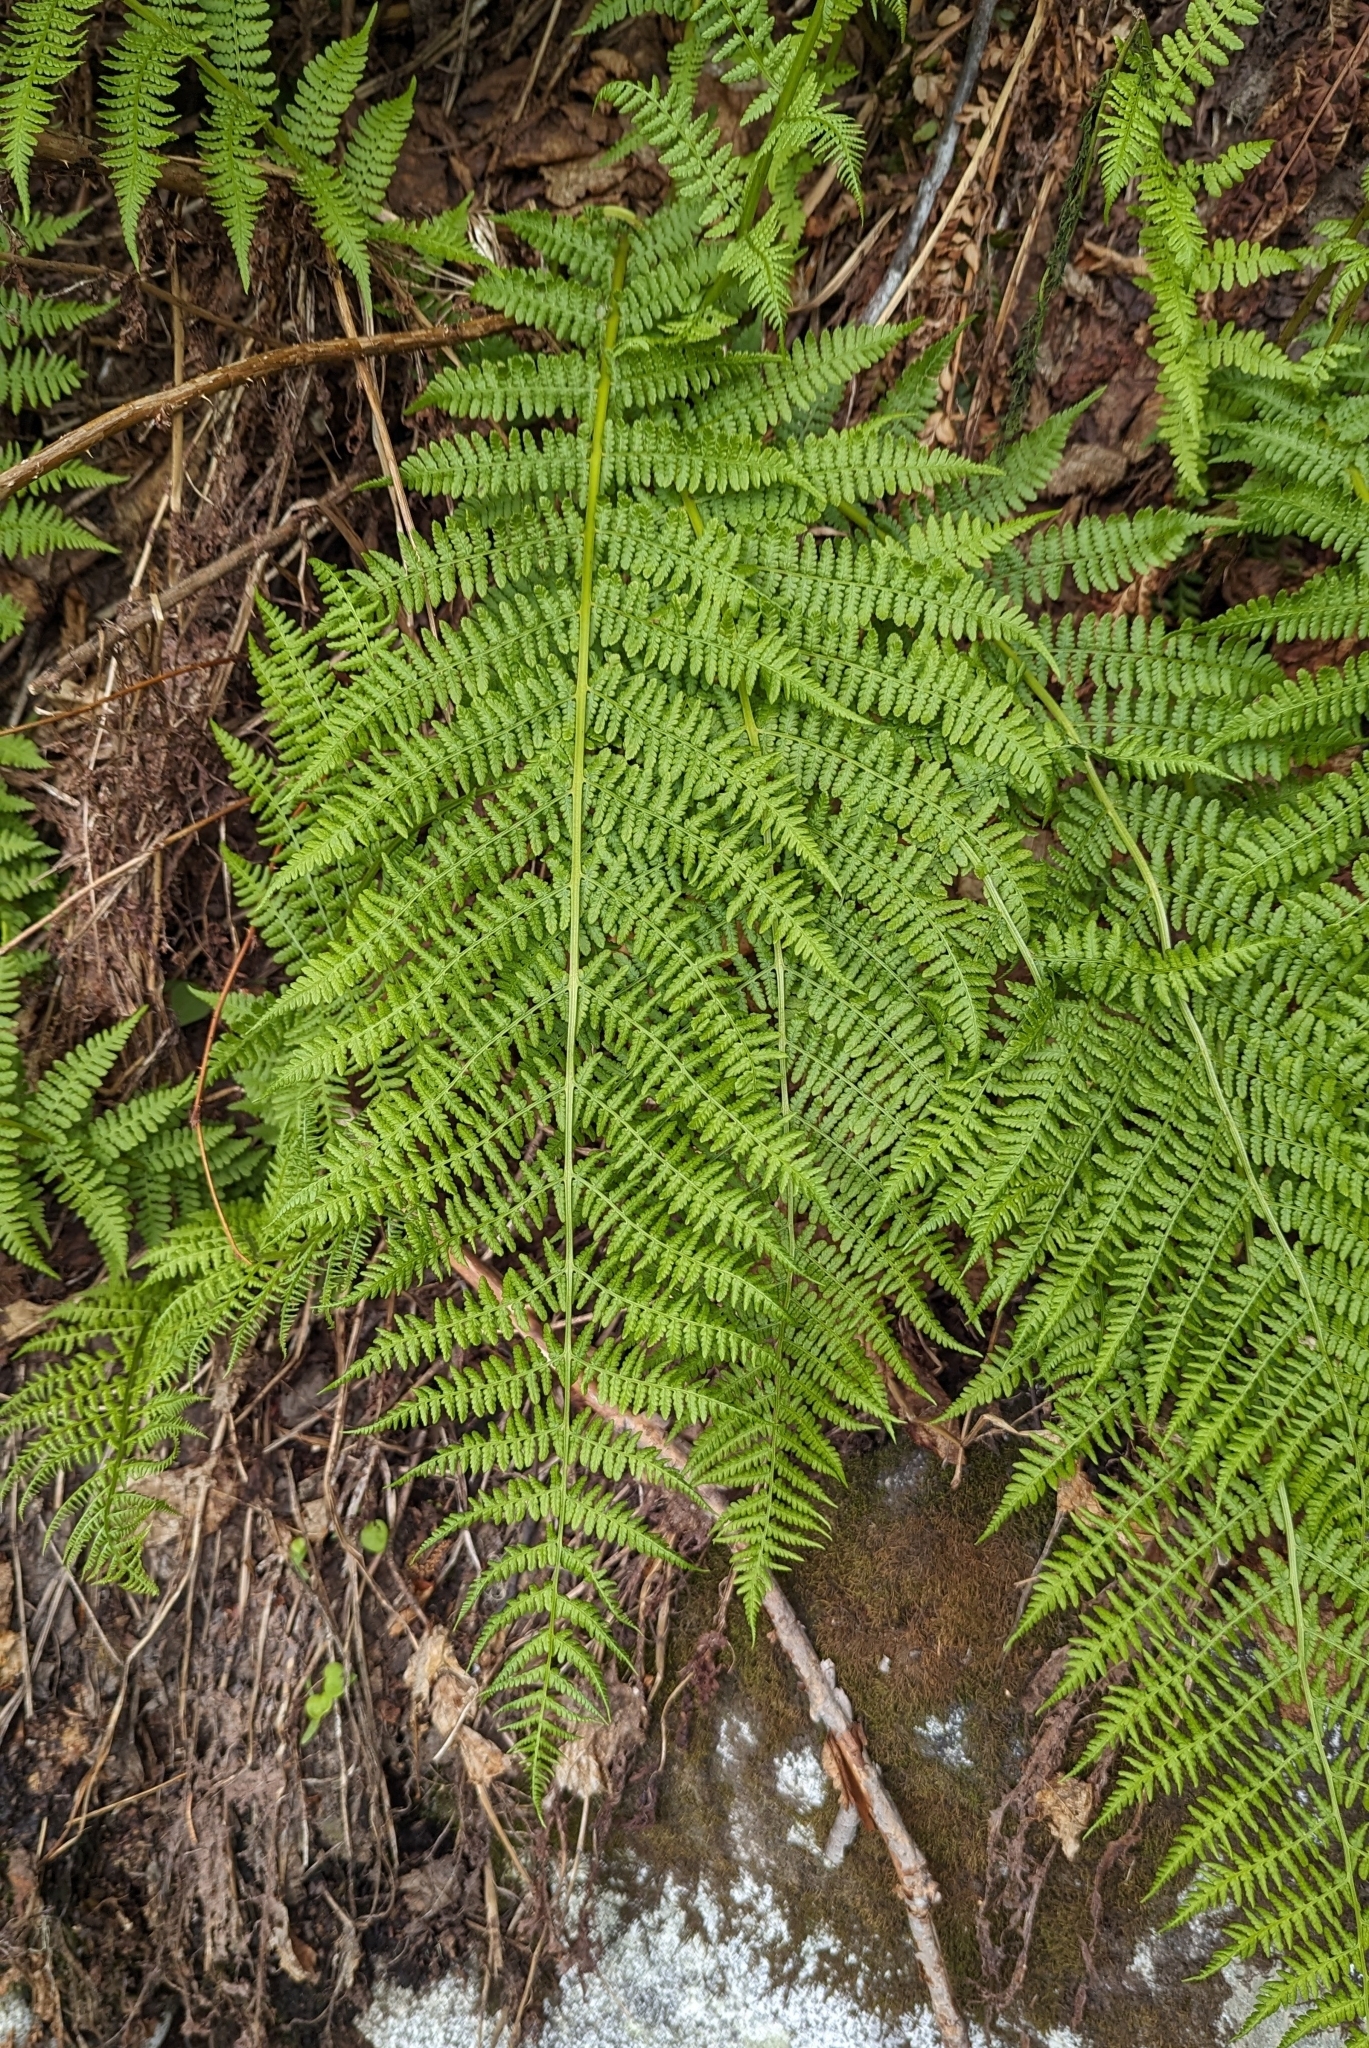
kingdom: Plantae
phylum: Tracheophyta
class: Polypodiopsida
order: Polypodiales
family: Athyriaceae
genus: Athyrium
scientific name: Athyrium filix-femina
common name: Lady fern
